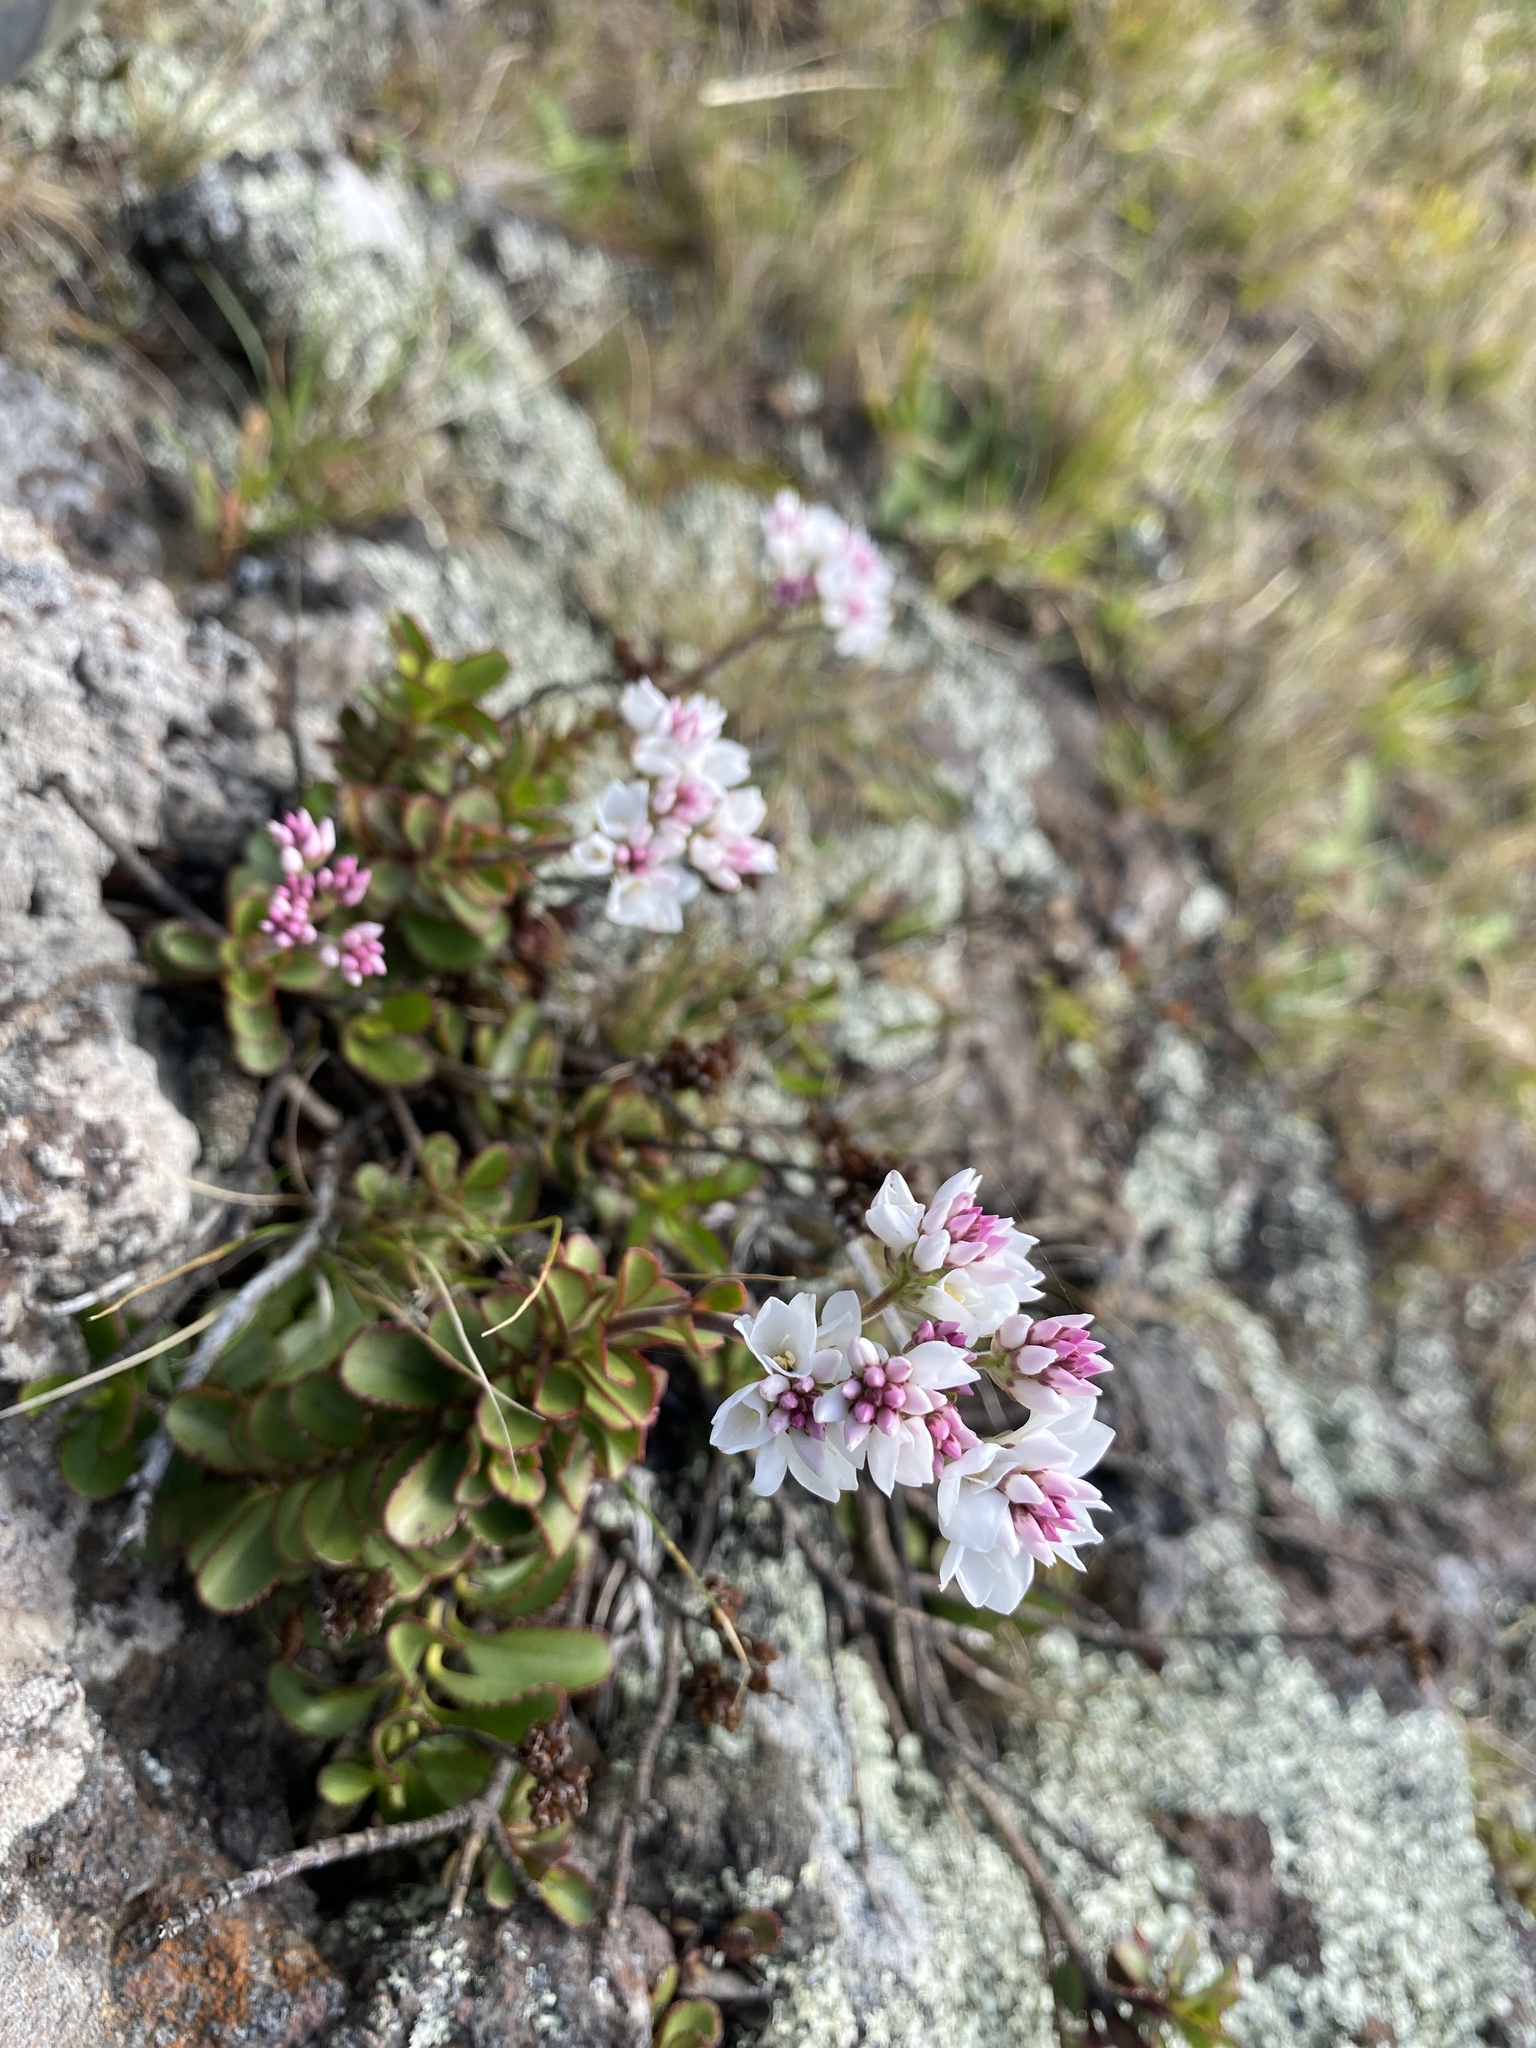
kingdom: Plantae
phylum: Tracheophyta
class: Magnoliopsida
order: Lamiales
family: Plantaginaceae
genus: Veronica
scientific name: Veronica lavaudiana
